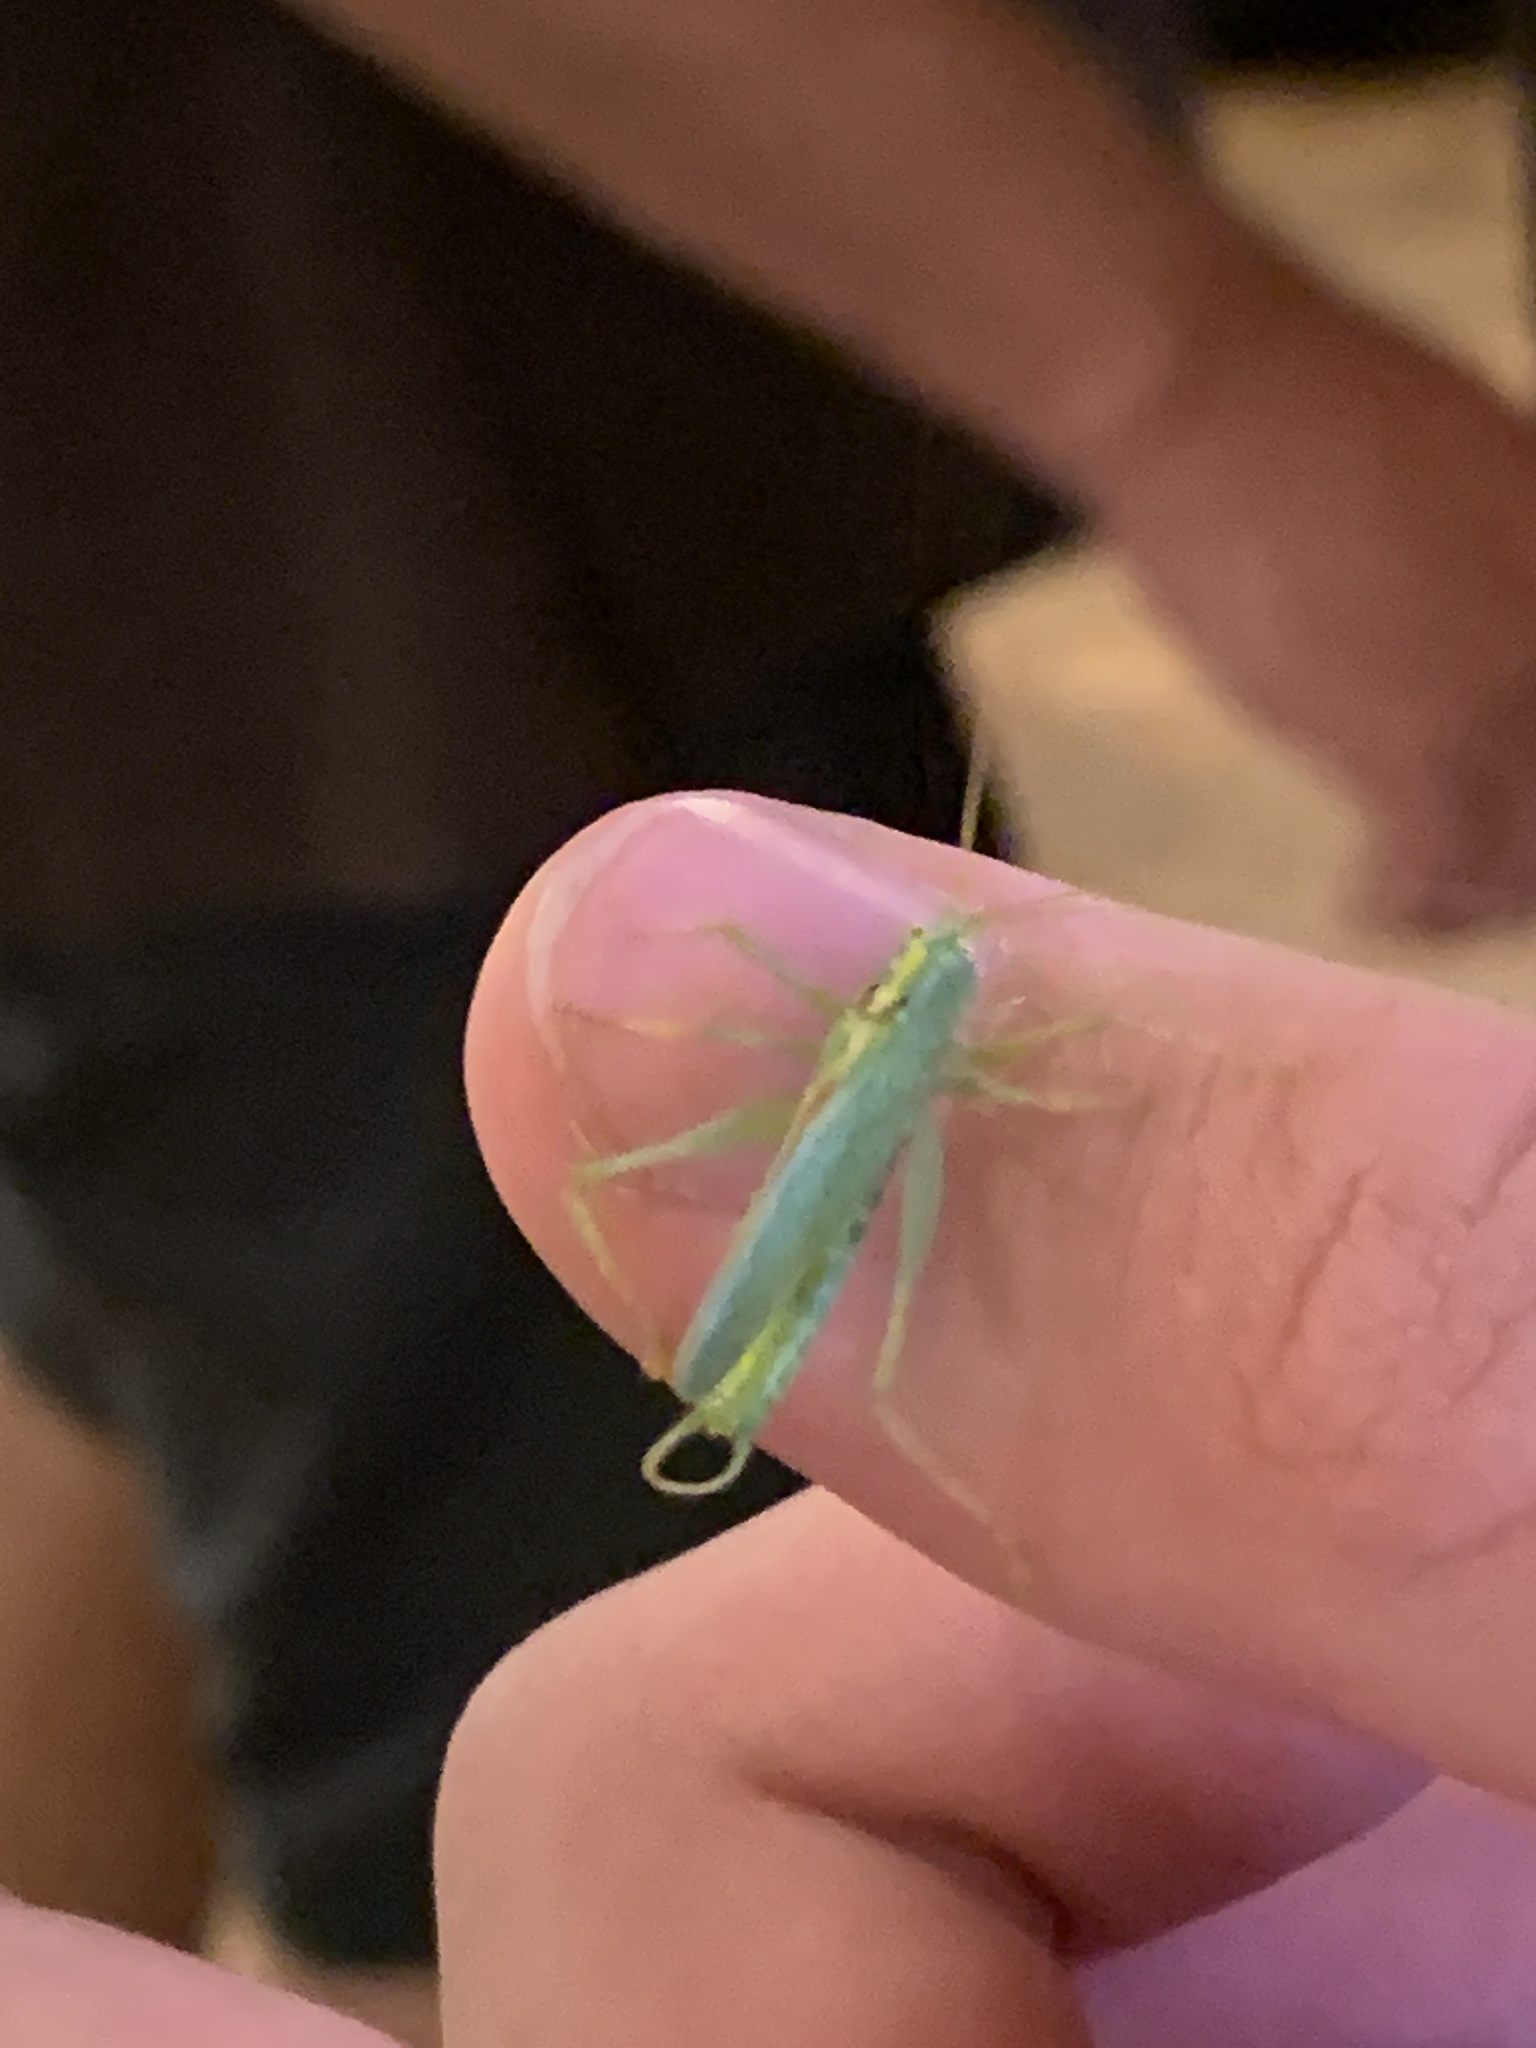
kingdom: Animalia
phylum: Arthropoda
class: Insecta
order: Orthoptera
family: Tettigoniidae
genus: Meconema
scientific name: Meconema thalassinum
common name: Oak bush-cricket
